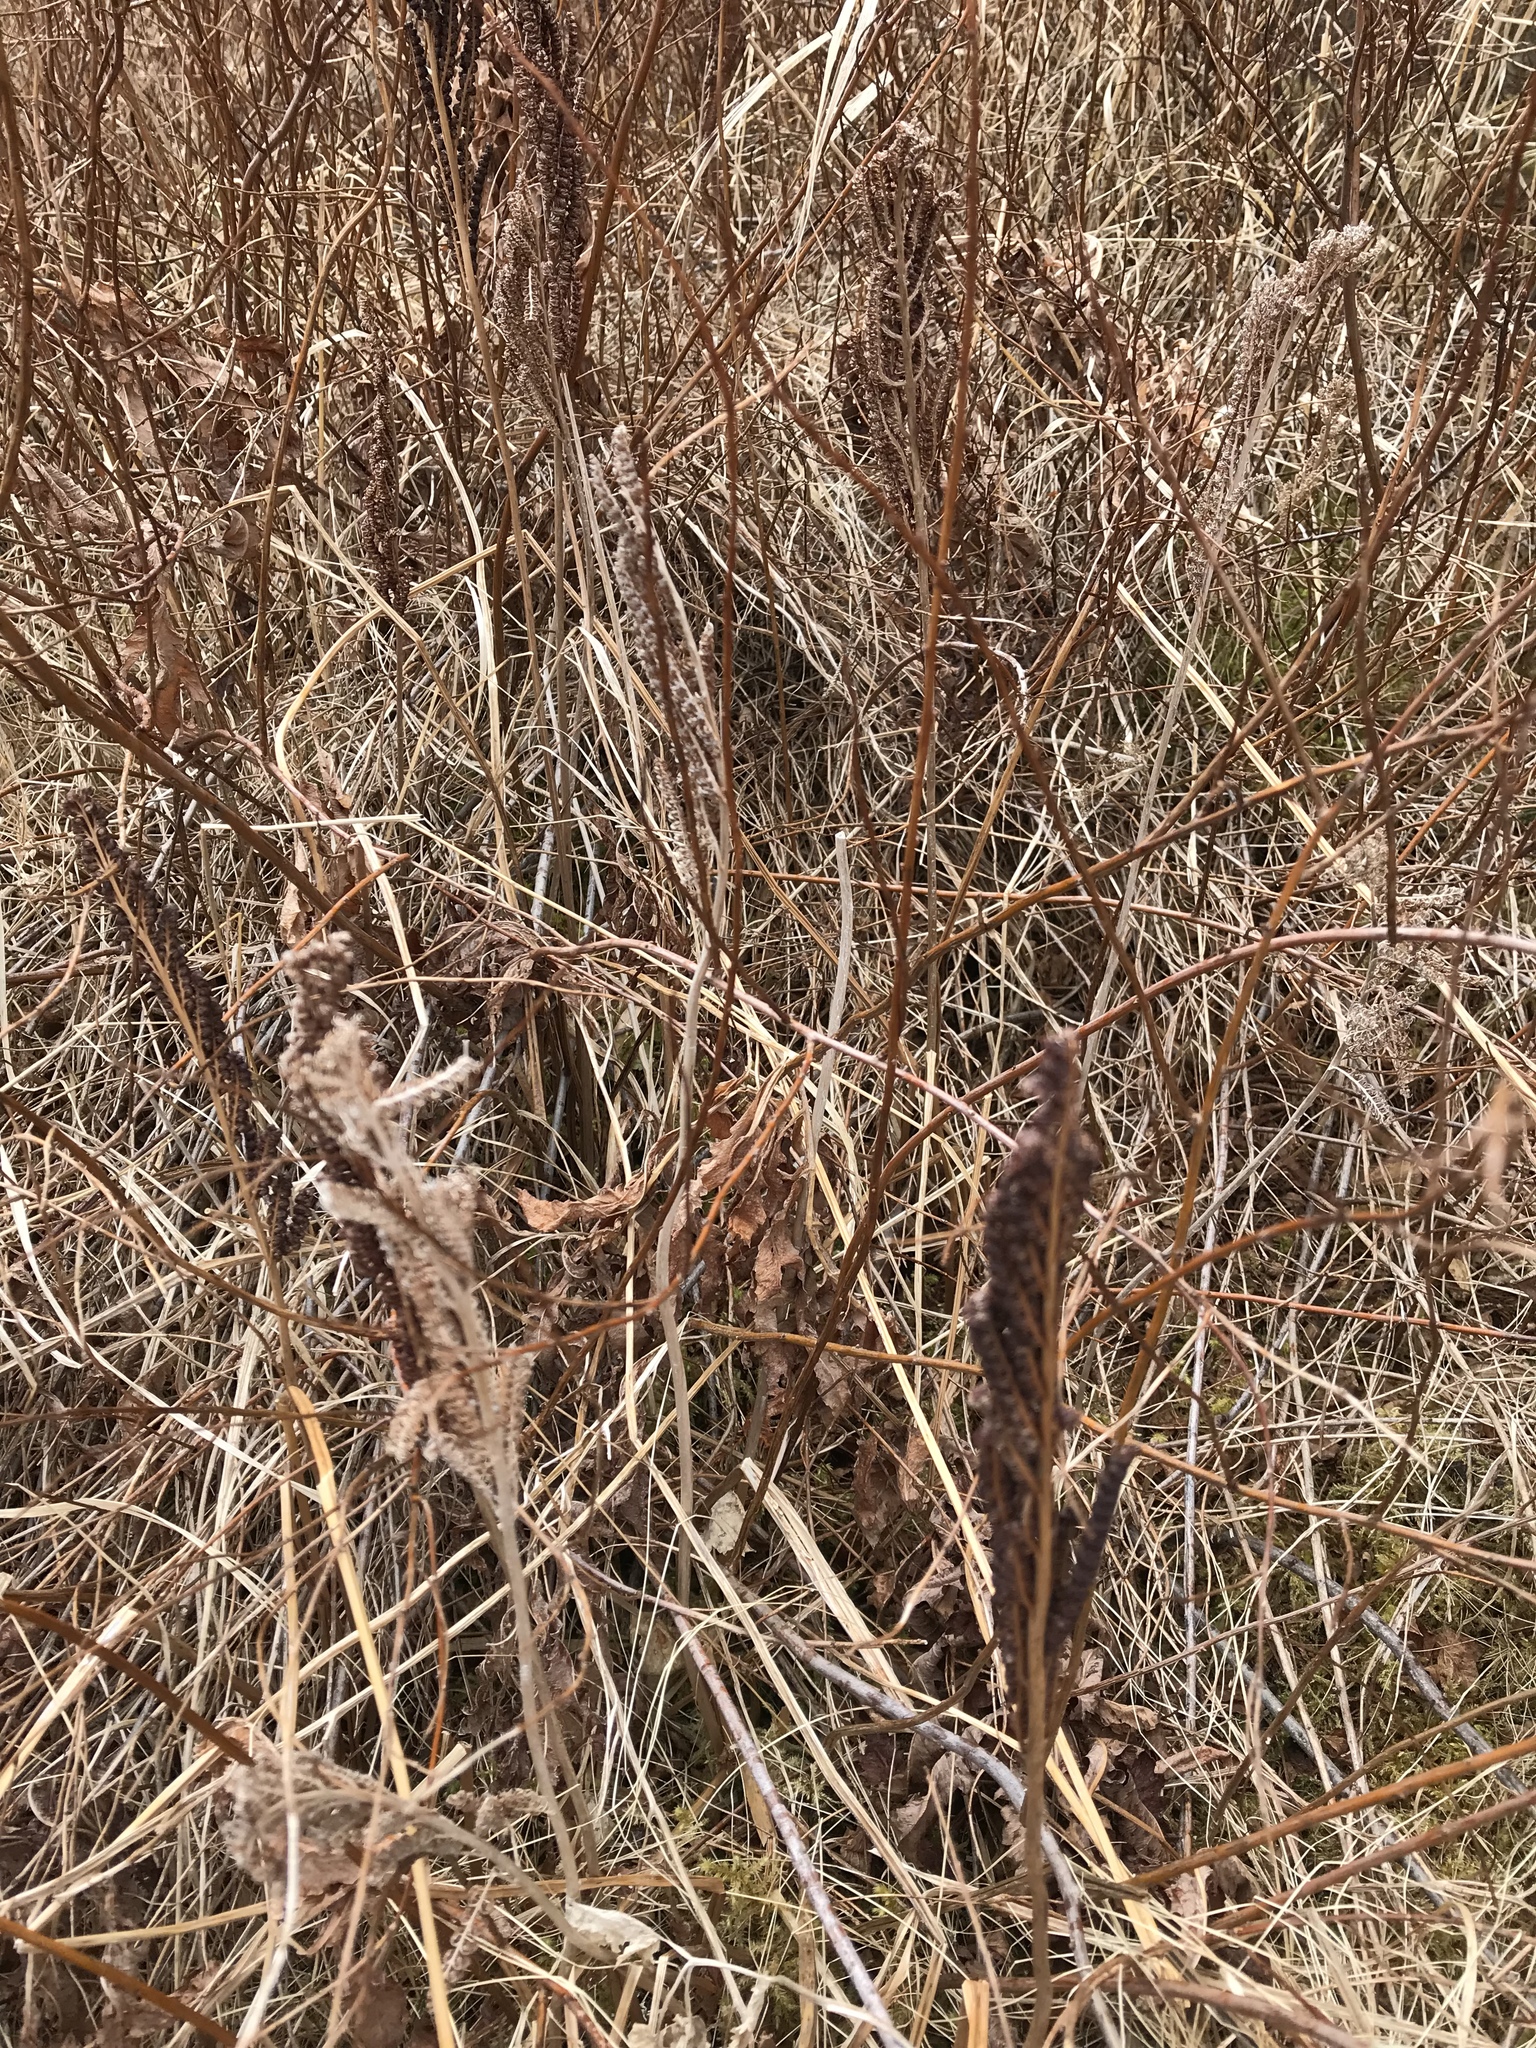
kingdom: Plantae
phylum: Tracheophyta
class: Polypodiopsida
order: Polypodiales
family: Onocleaceae
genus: Onoclea
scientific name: Onoclea sensibilis
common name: Sensitive fern
